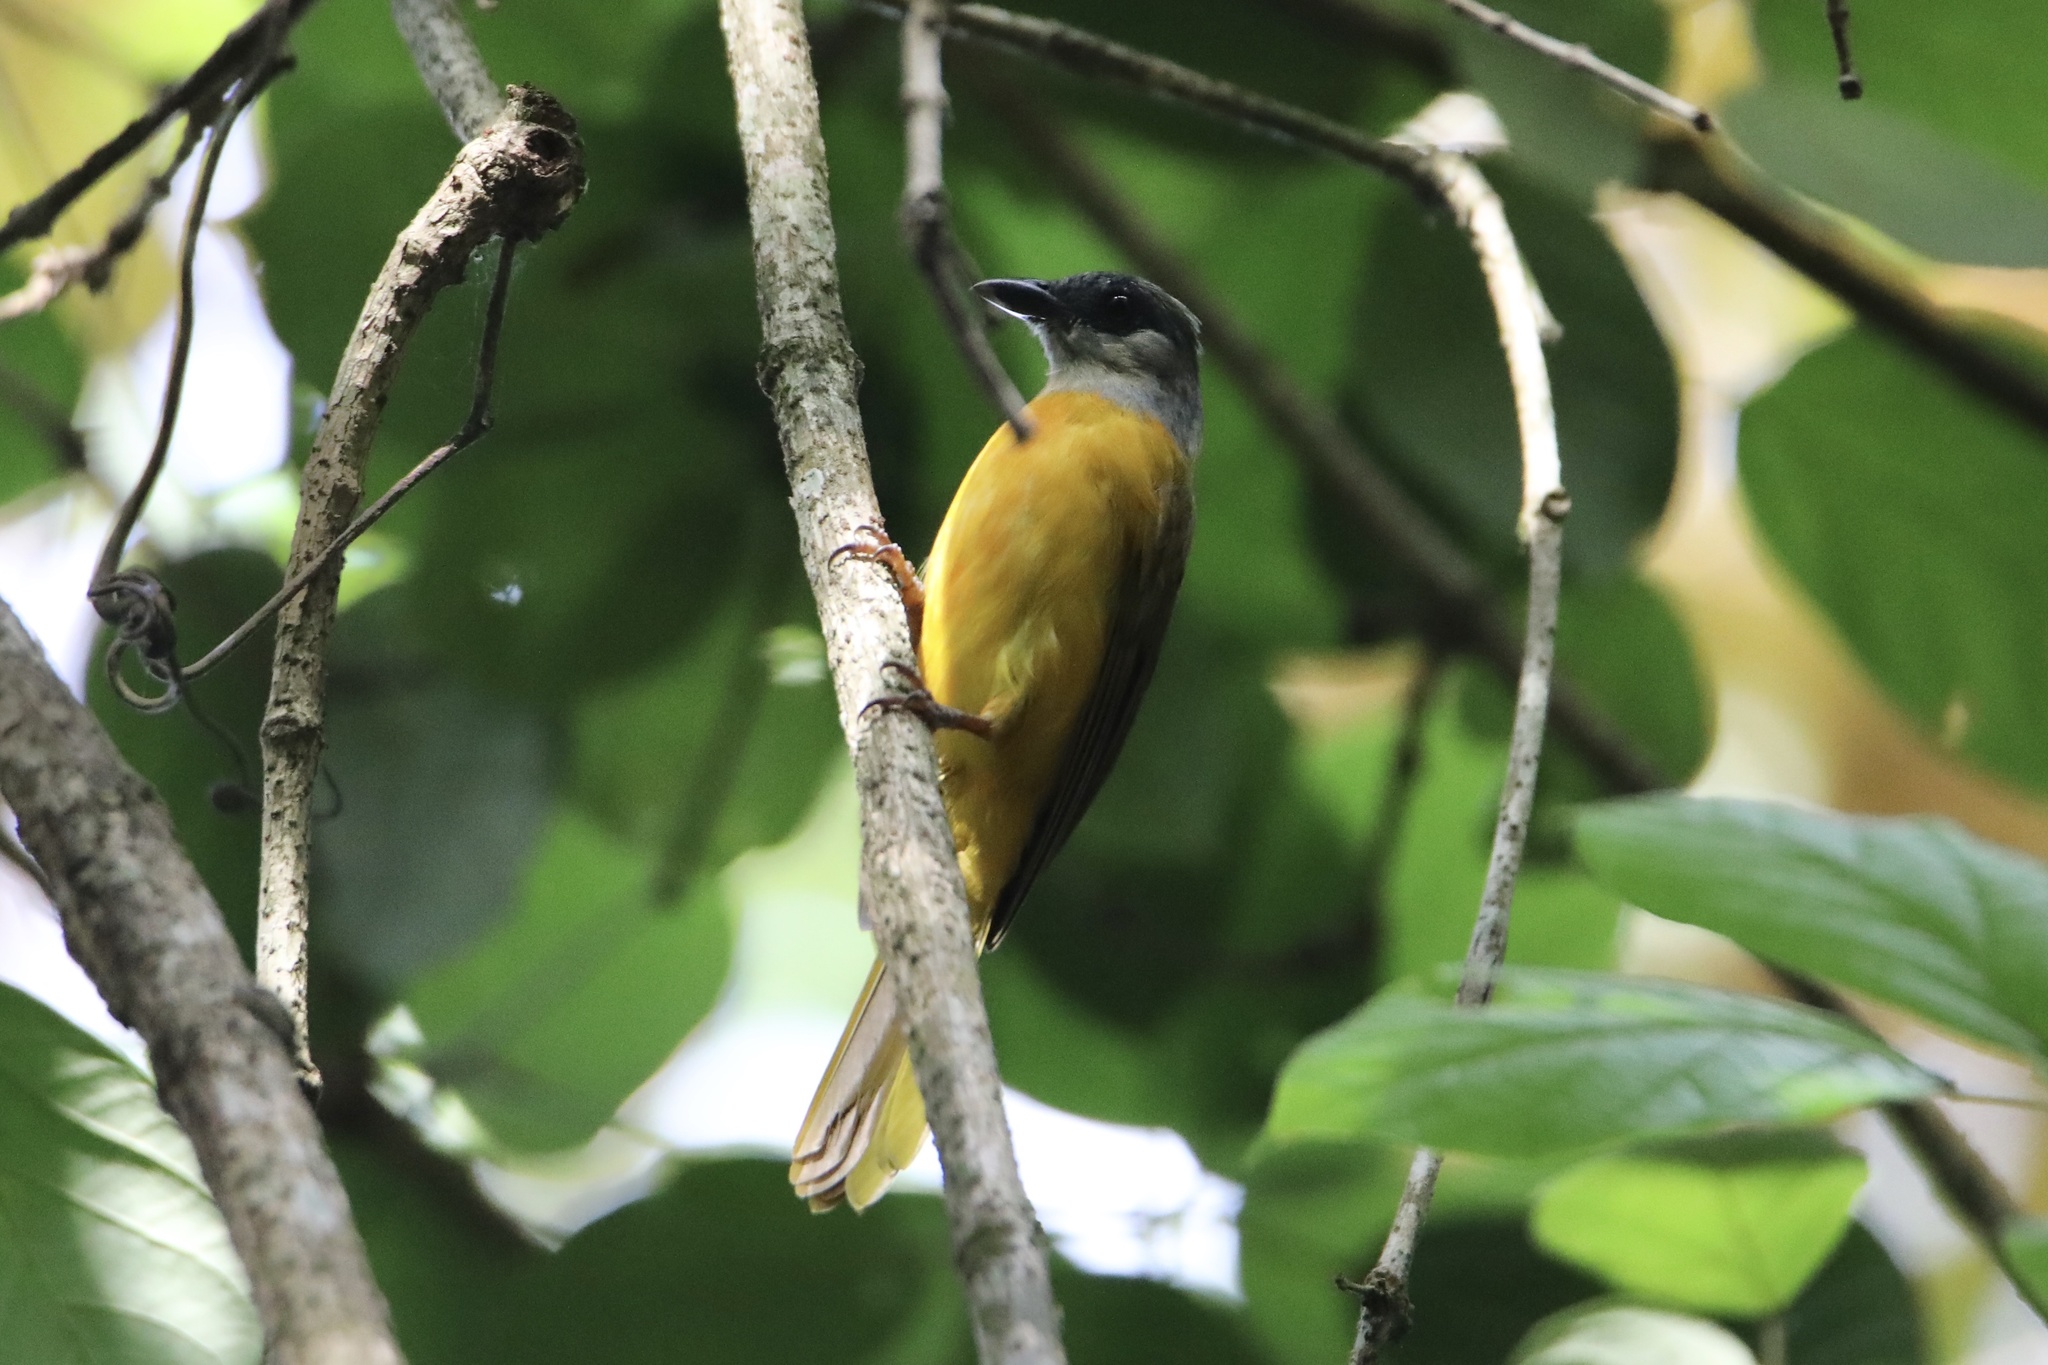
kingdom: Animalia
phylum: Chordata
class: Aves
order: Passeriformes
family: Thraupidae
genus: Eucometis
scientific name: Eucometis penicillata
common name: Grey-headed tanager
